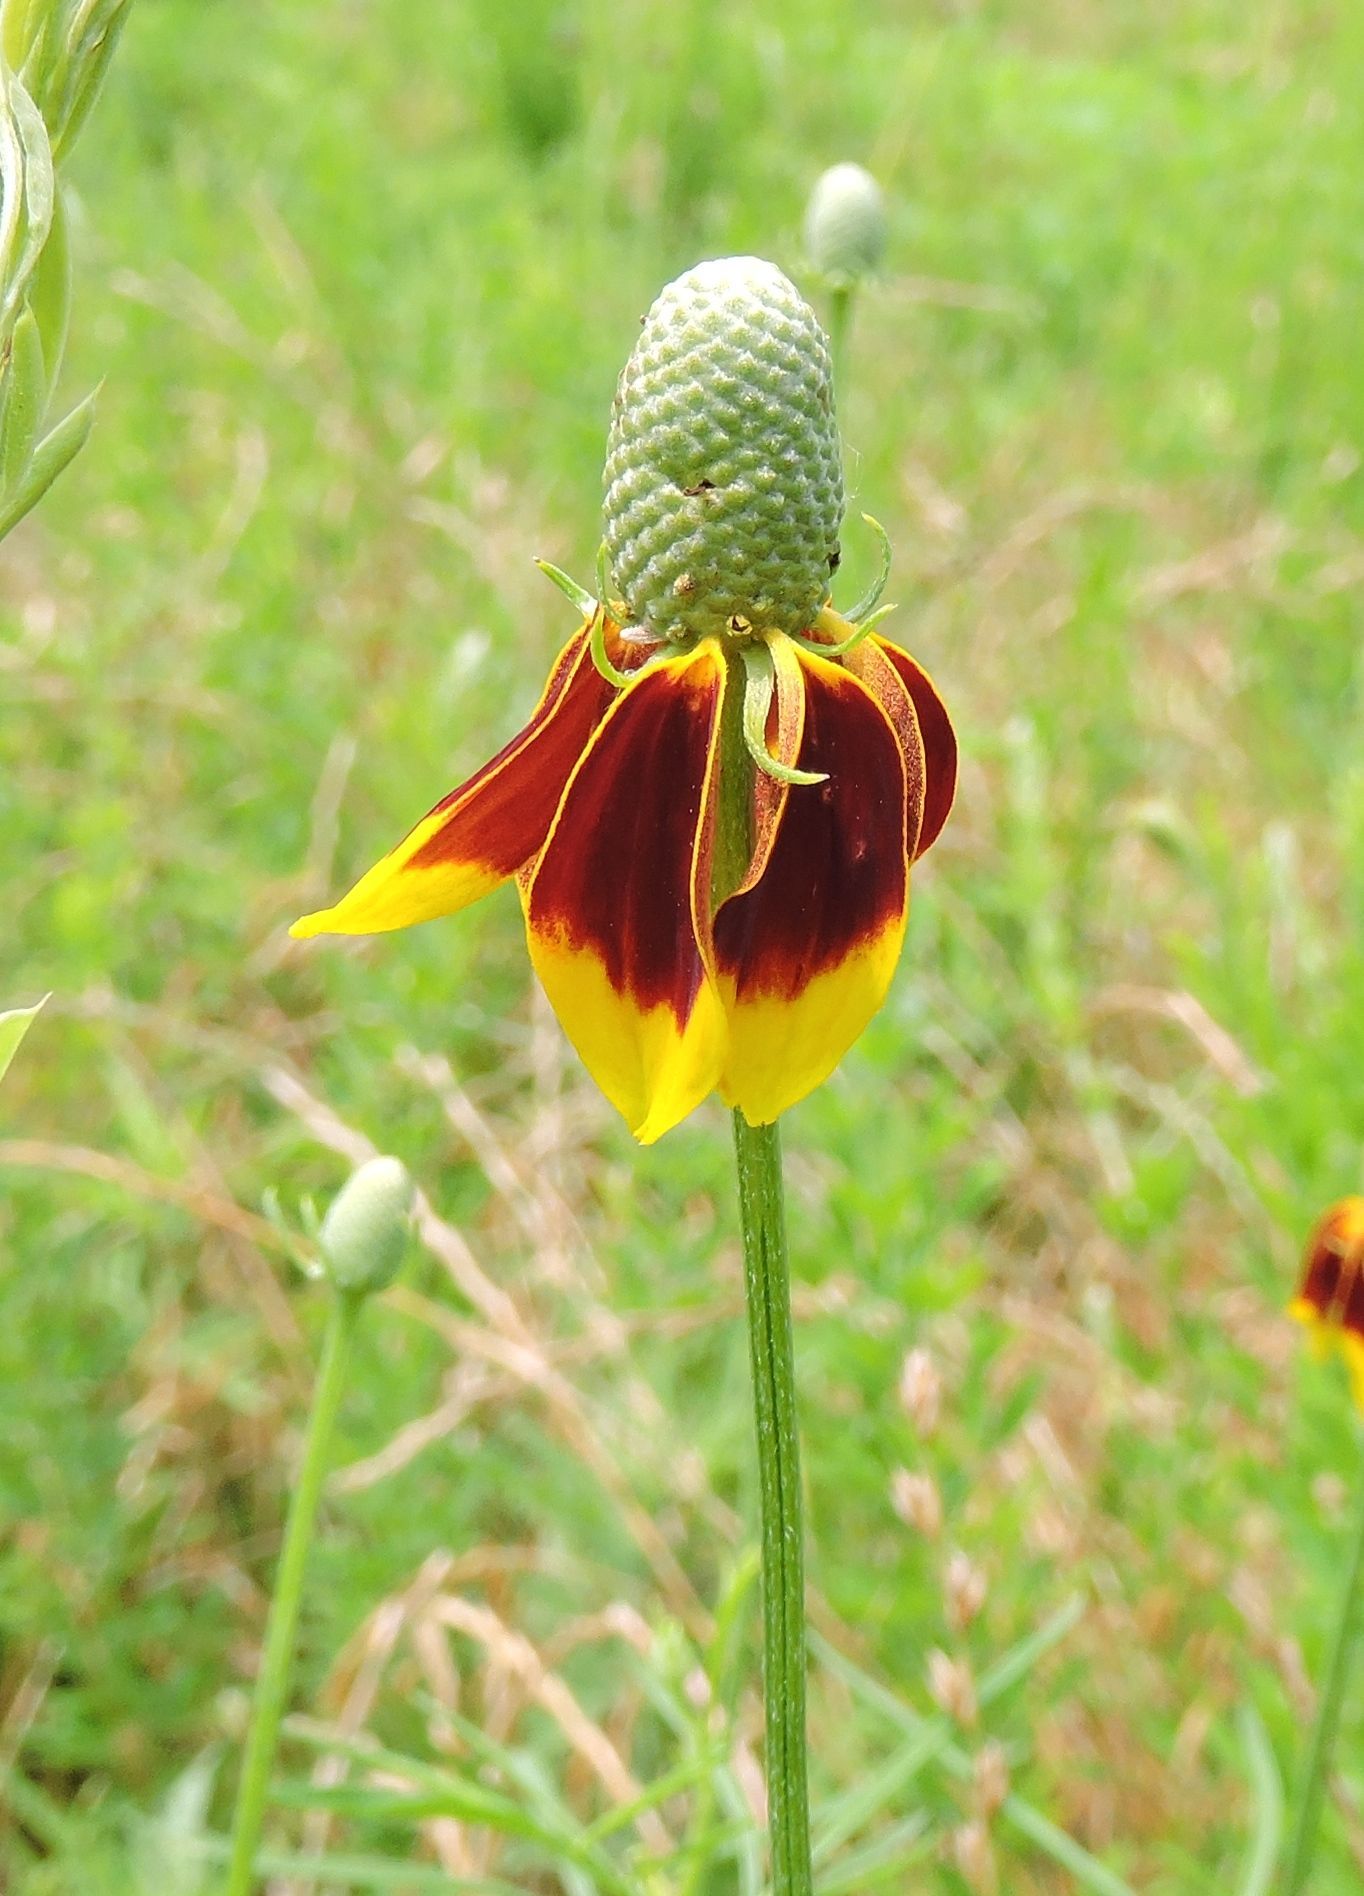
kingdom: Plantae
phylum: Tracheophyta
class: Magnoliopsida
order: Asterales
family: Asteraceae
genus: Ratibida
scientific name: Ratibida columnifera
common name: Prairie coneflower
